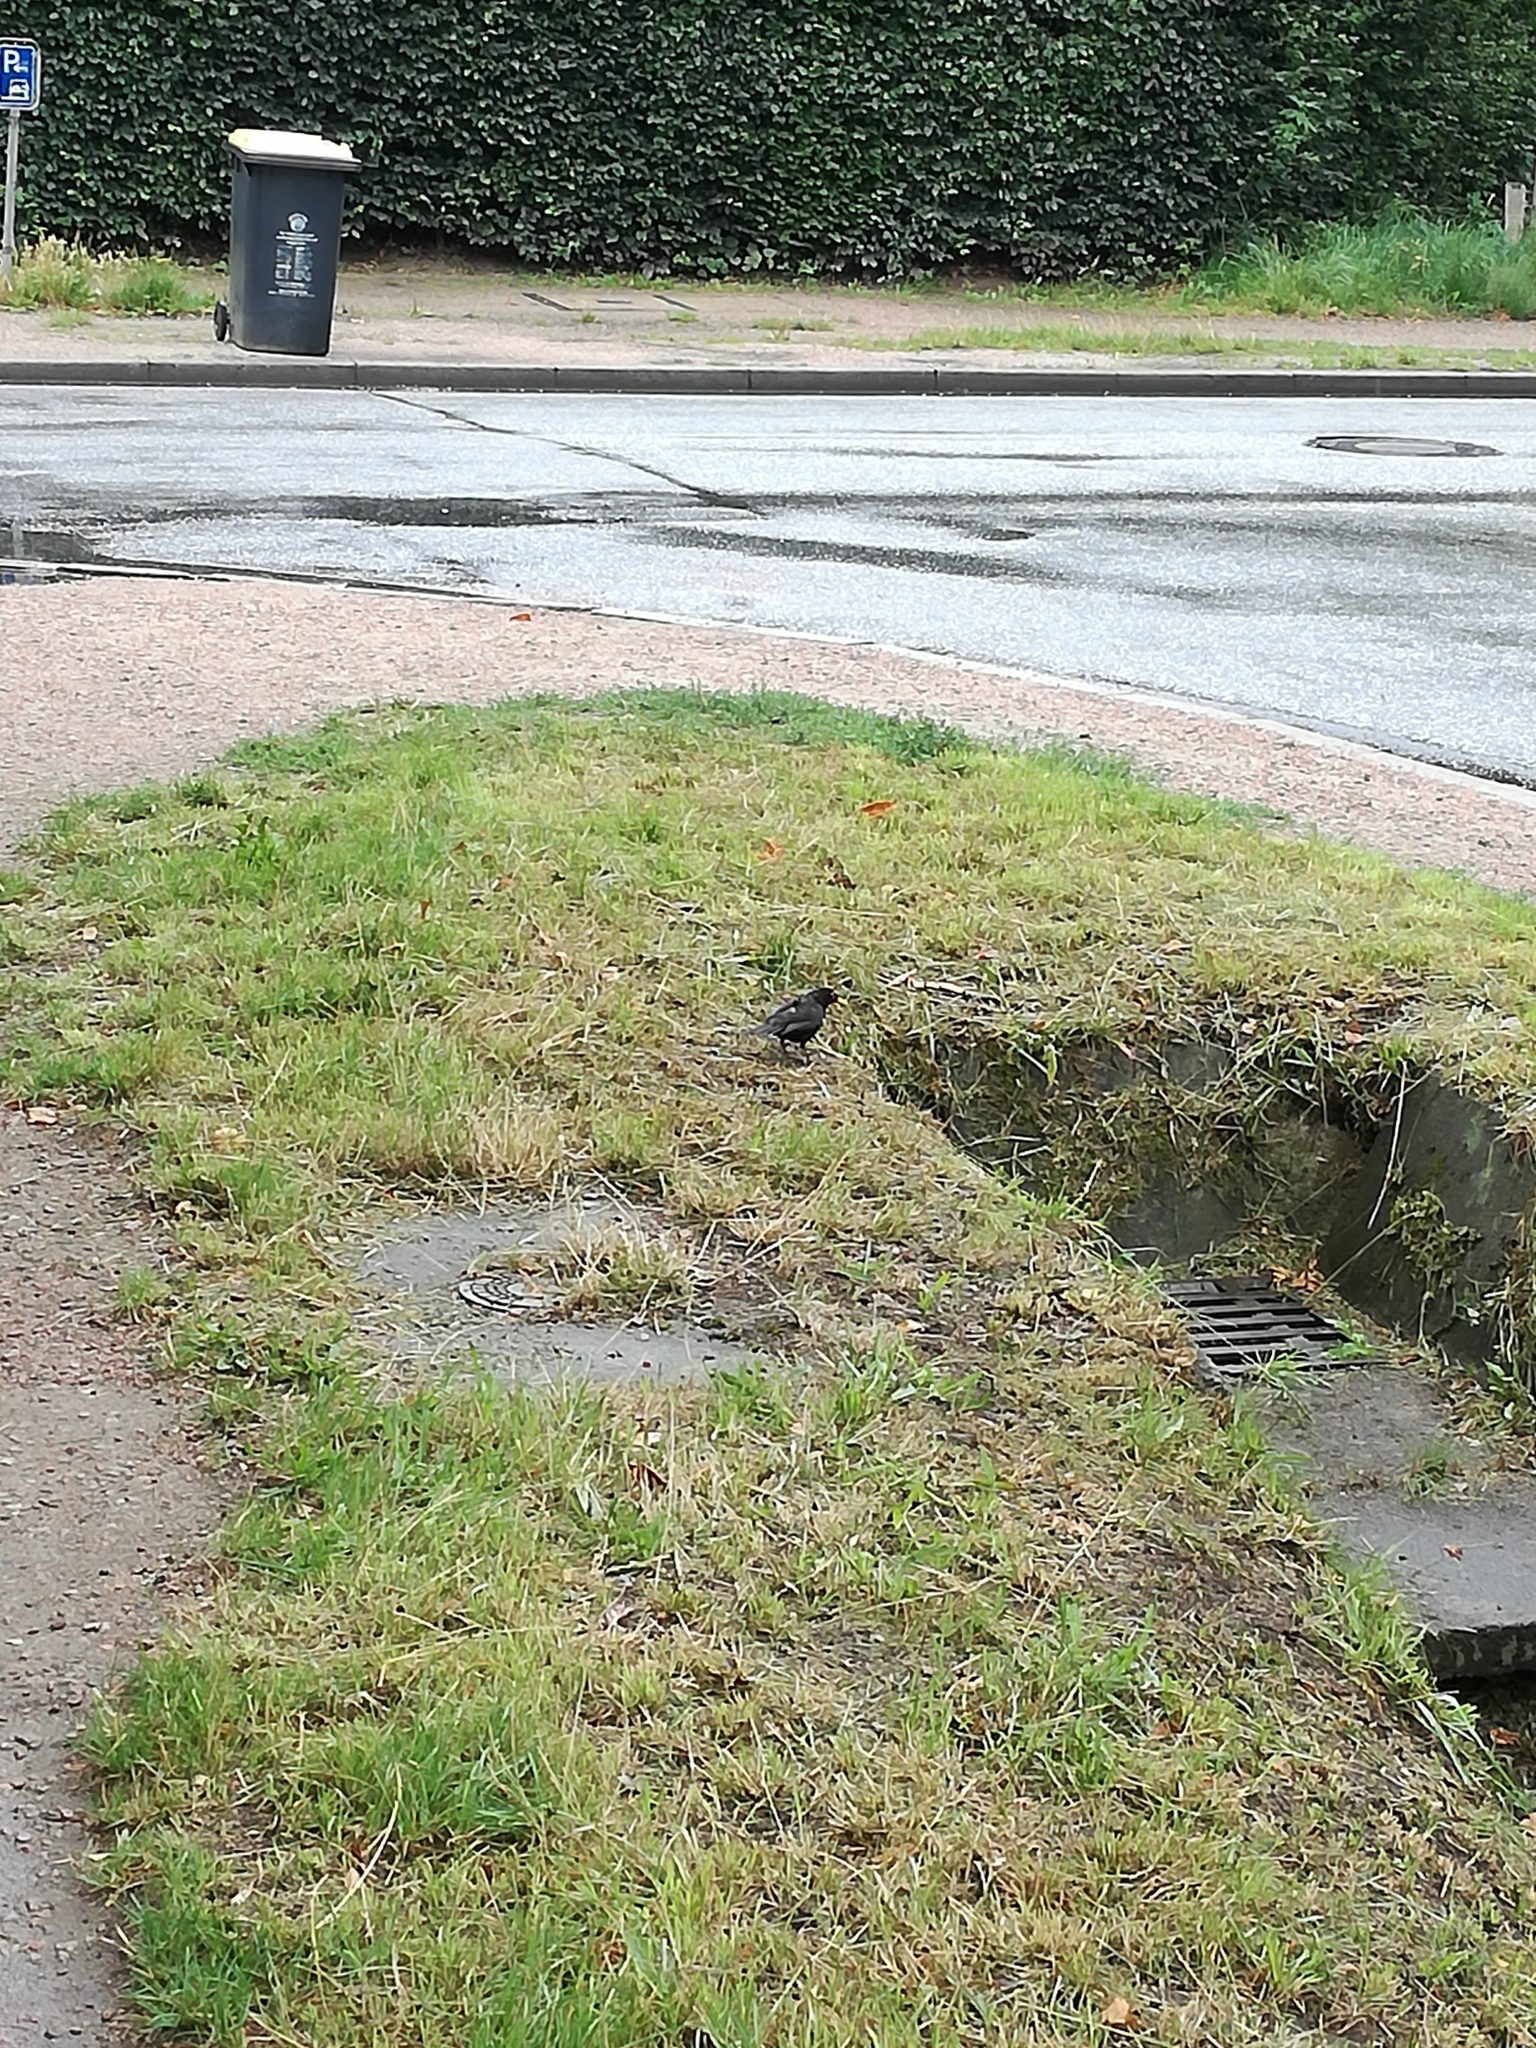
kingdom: Animalia
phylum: Chordata
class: Aves
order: Passeriformes
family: Turdidae
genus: Turdus
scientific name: Turdus merula
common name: Common blackbird
